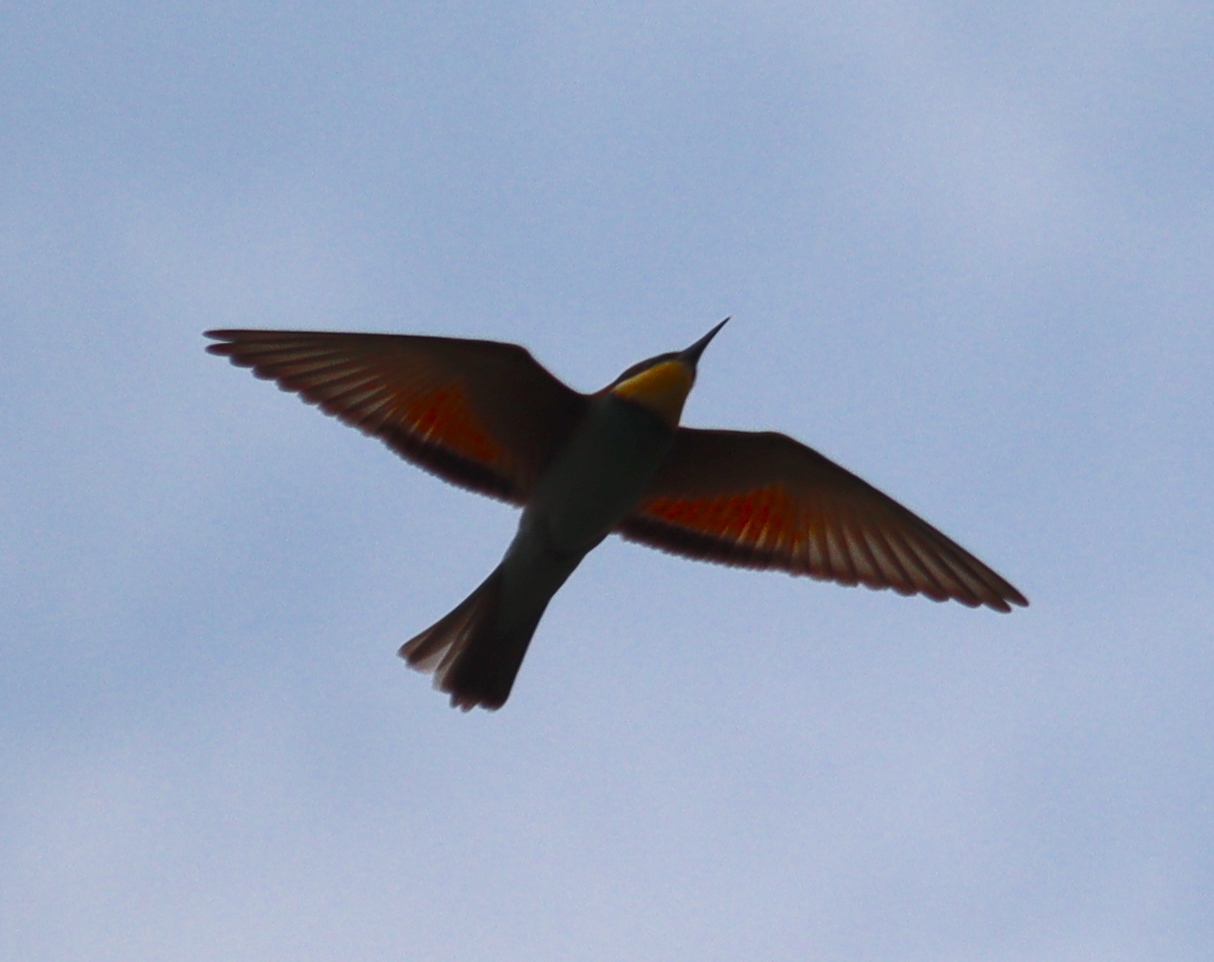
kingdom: Animalia
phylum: Chordata
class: Aves
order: Coraciiformes
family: Meropidae
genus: Merops
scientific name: Merops apiaster
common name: European bee-eater
